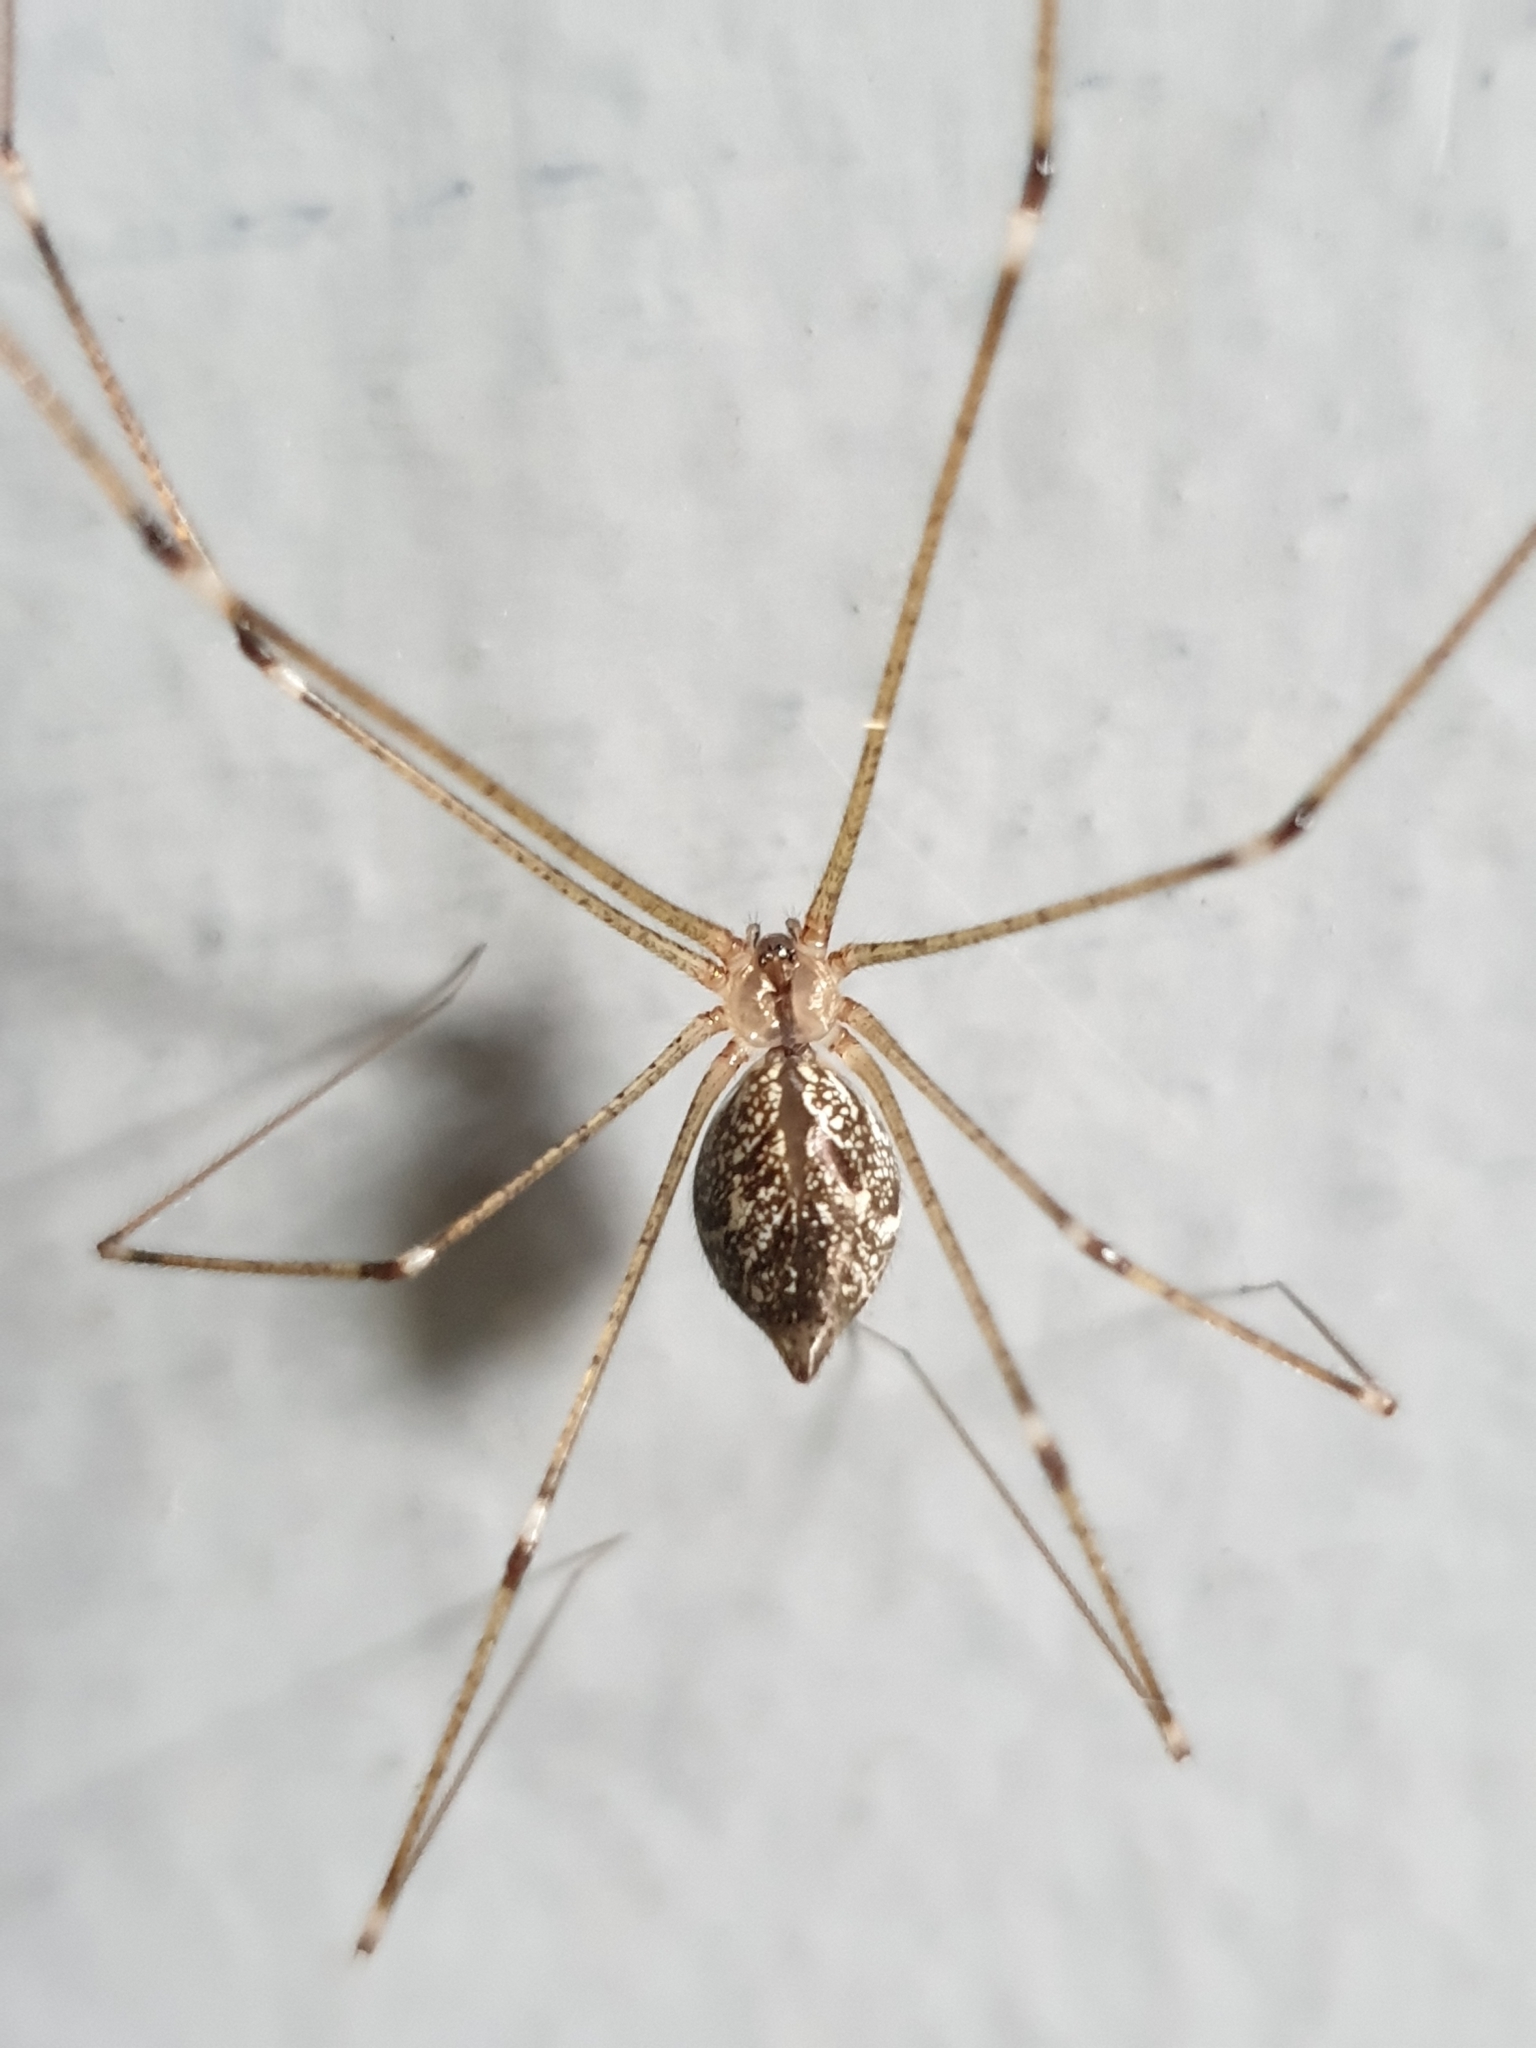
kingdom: Animalia
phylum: Arthropoda
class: Arachnida
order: Araneae
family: Pholcidae
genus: Crossopriza
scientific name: Crossopriza lyoni
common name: Cellar spiders
